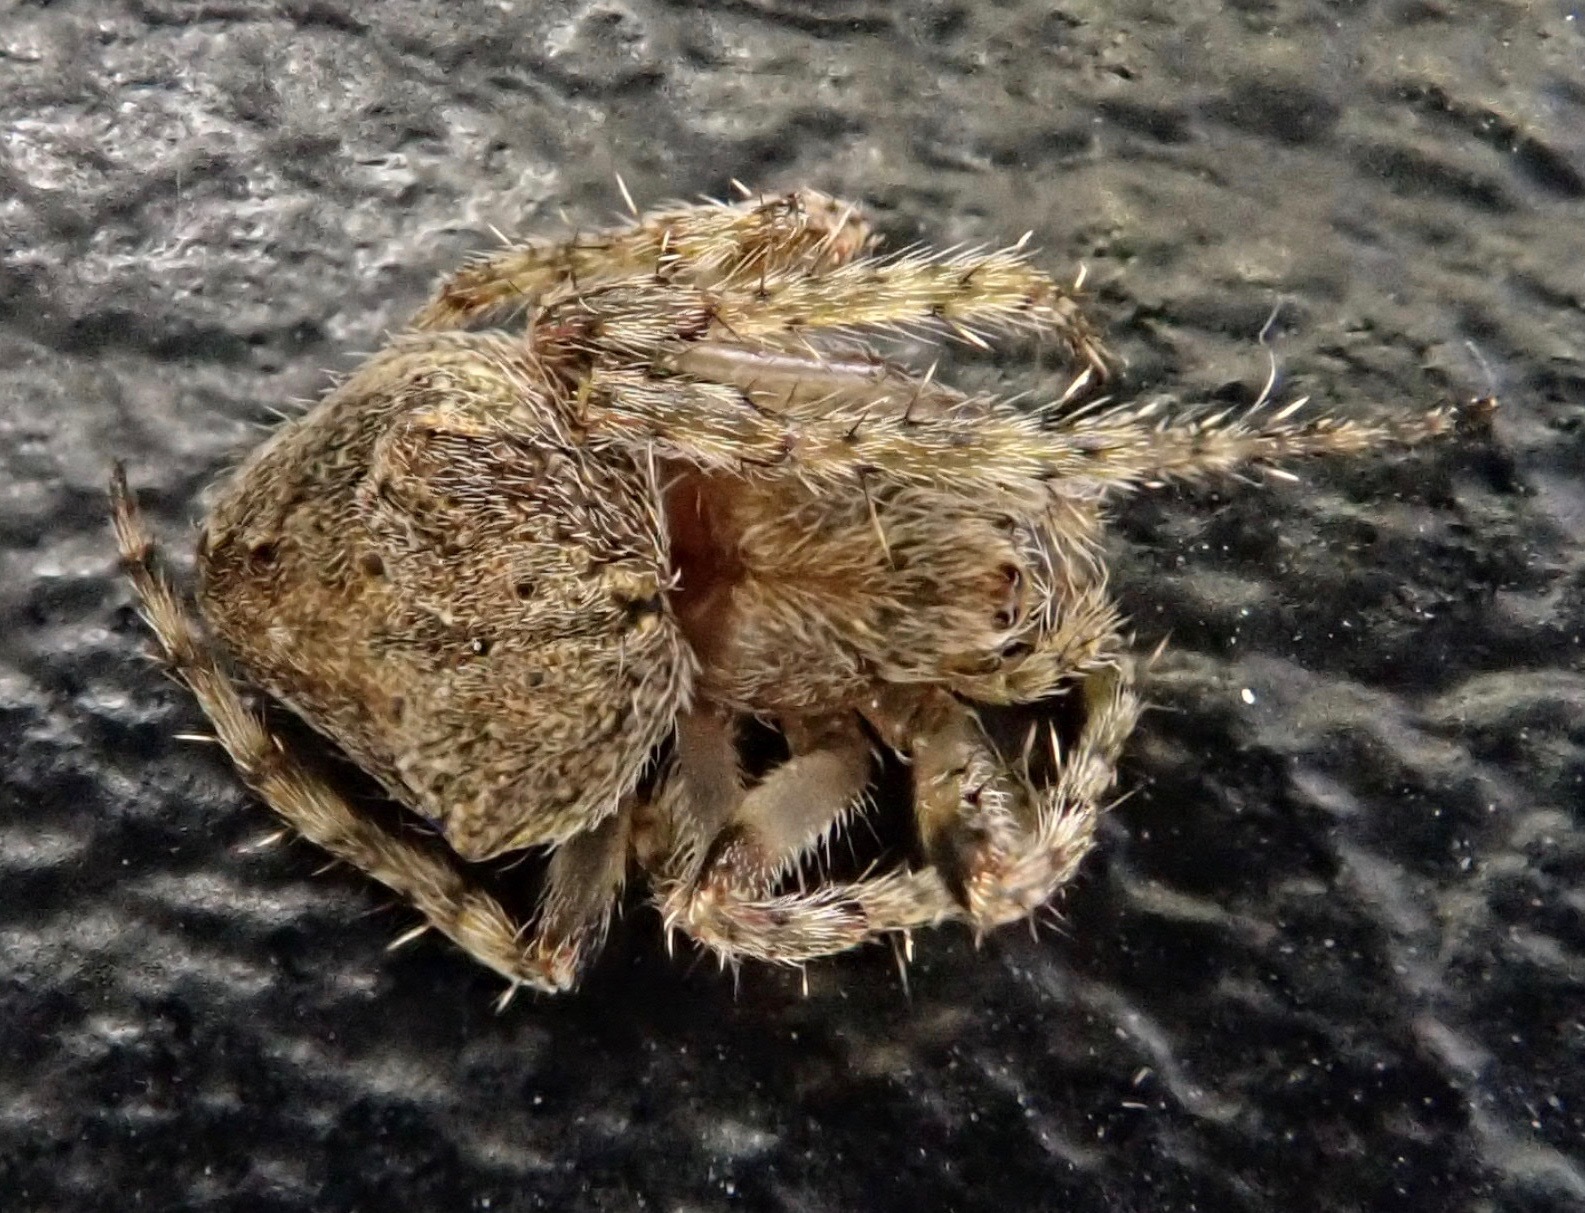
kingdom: Animalia
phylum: Arthropoda
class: Arachnida
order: Araneae
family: Araneidae
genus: Eriophora
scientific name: Eriophora pustulosa
